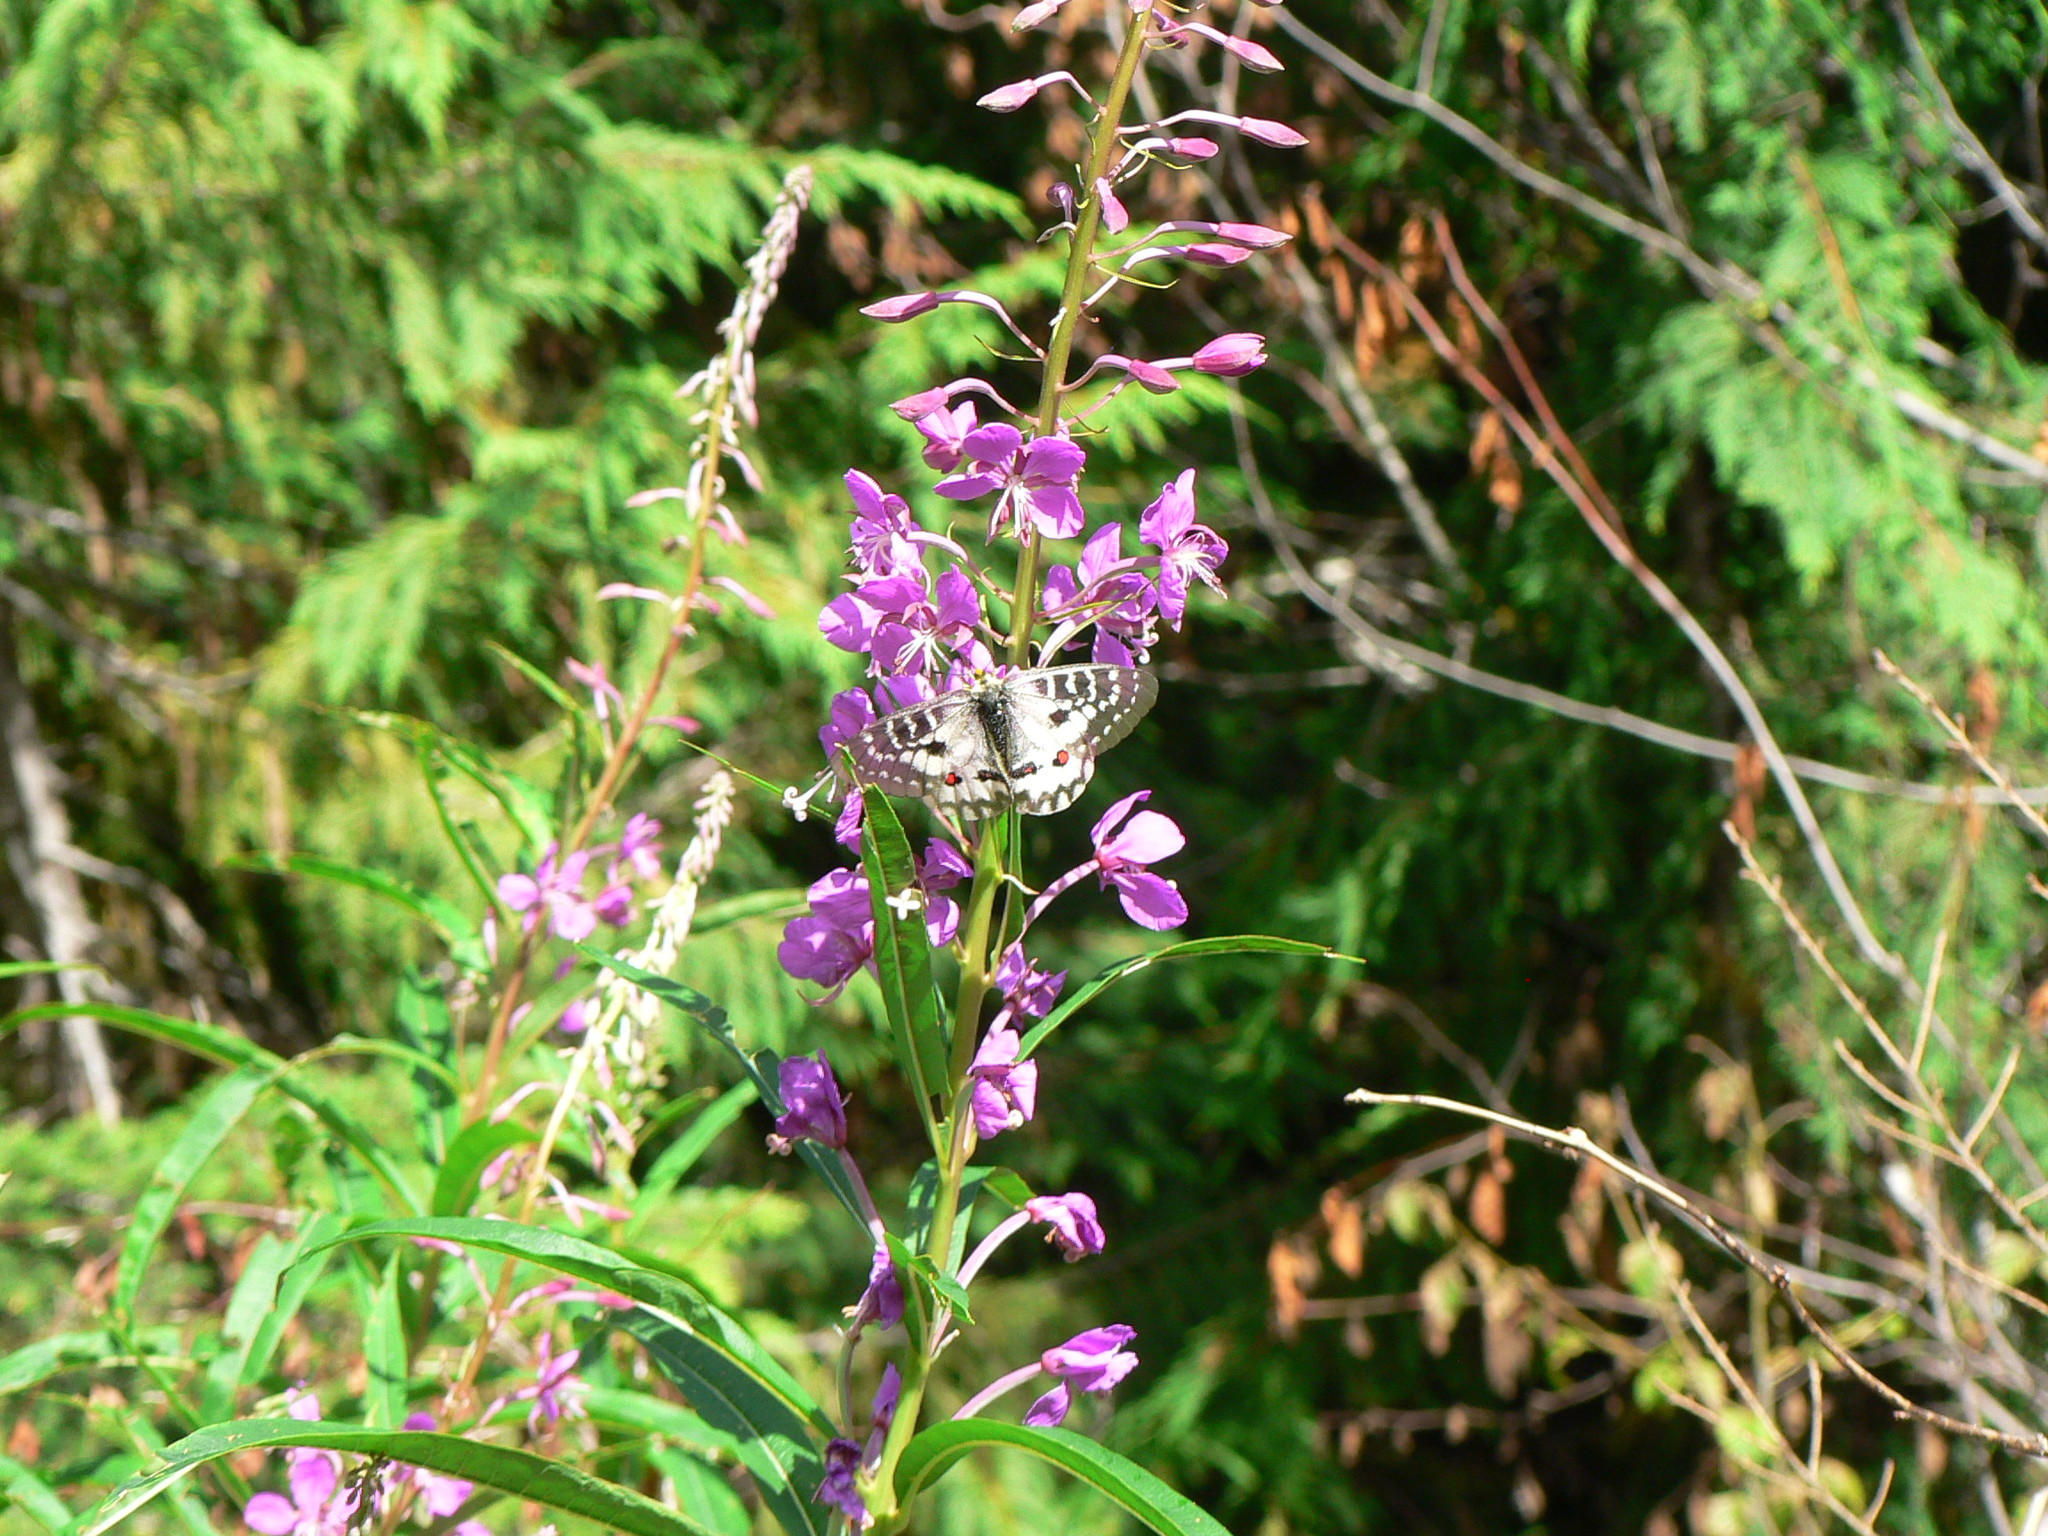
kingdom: Animalia
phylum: Arthropoda
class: Insecta
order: Lepidoptera
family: Papilionidae
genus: Parnassius
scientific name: Parnassius clodius
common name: American apollo
